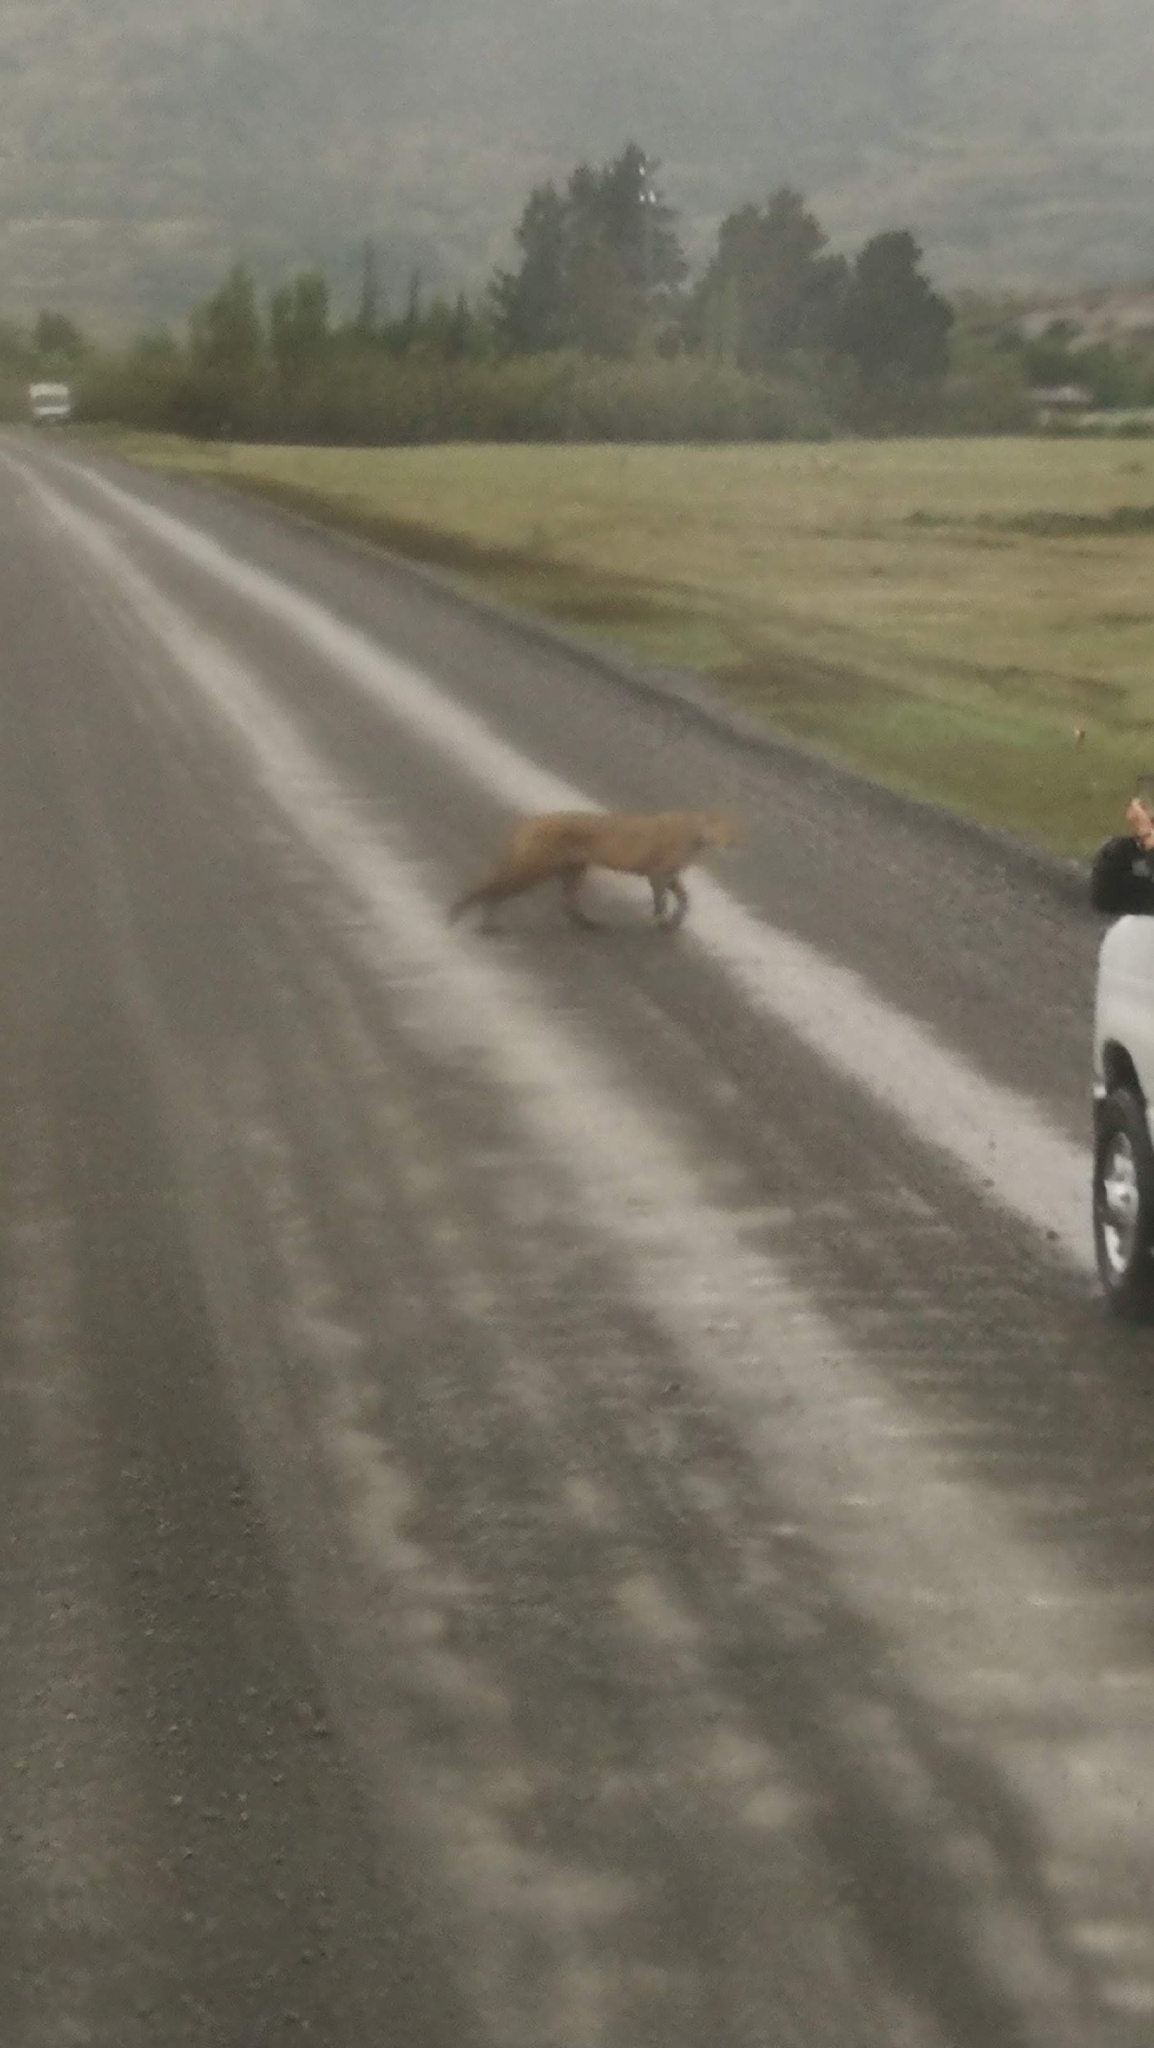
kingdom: Animalia
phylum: Chordata
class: Mammalia
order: Carnivora
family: Felidae
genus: Puma
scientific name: Puma concolor
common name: Puma
